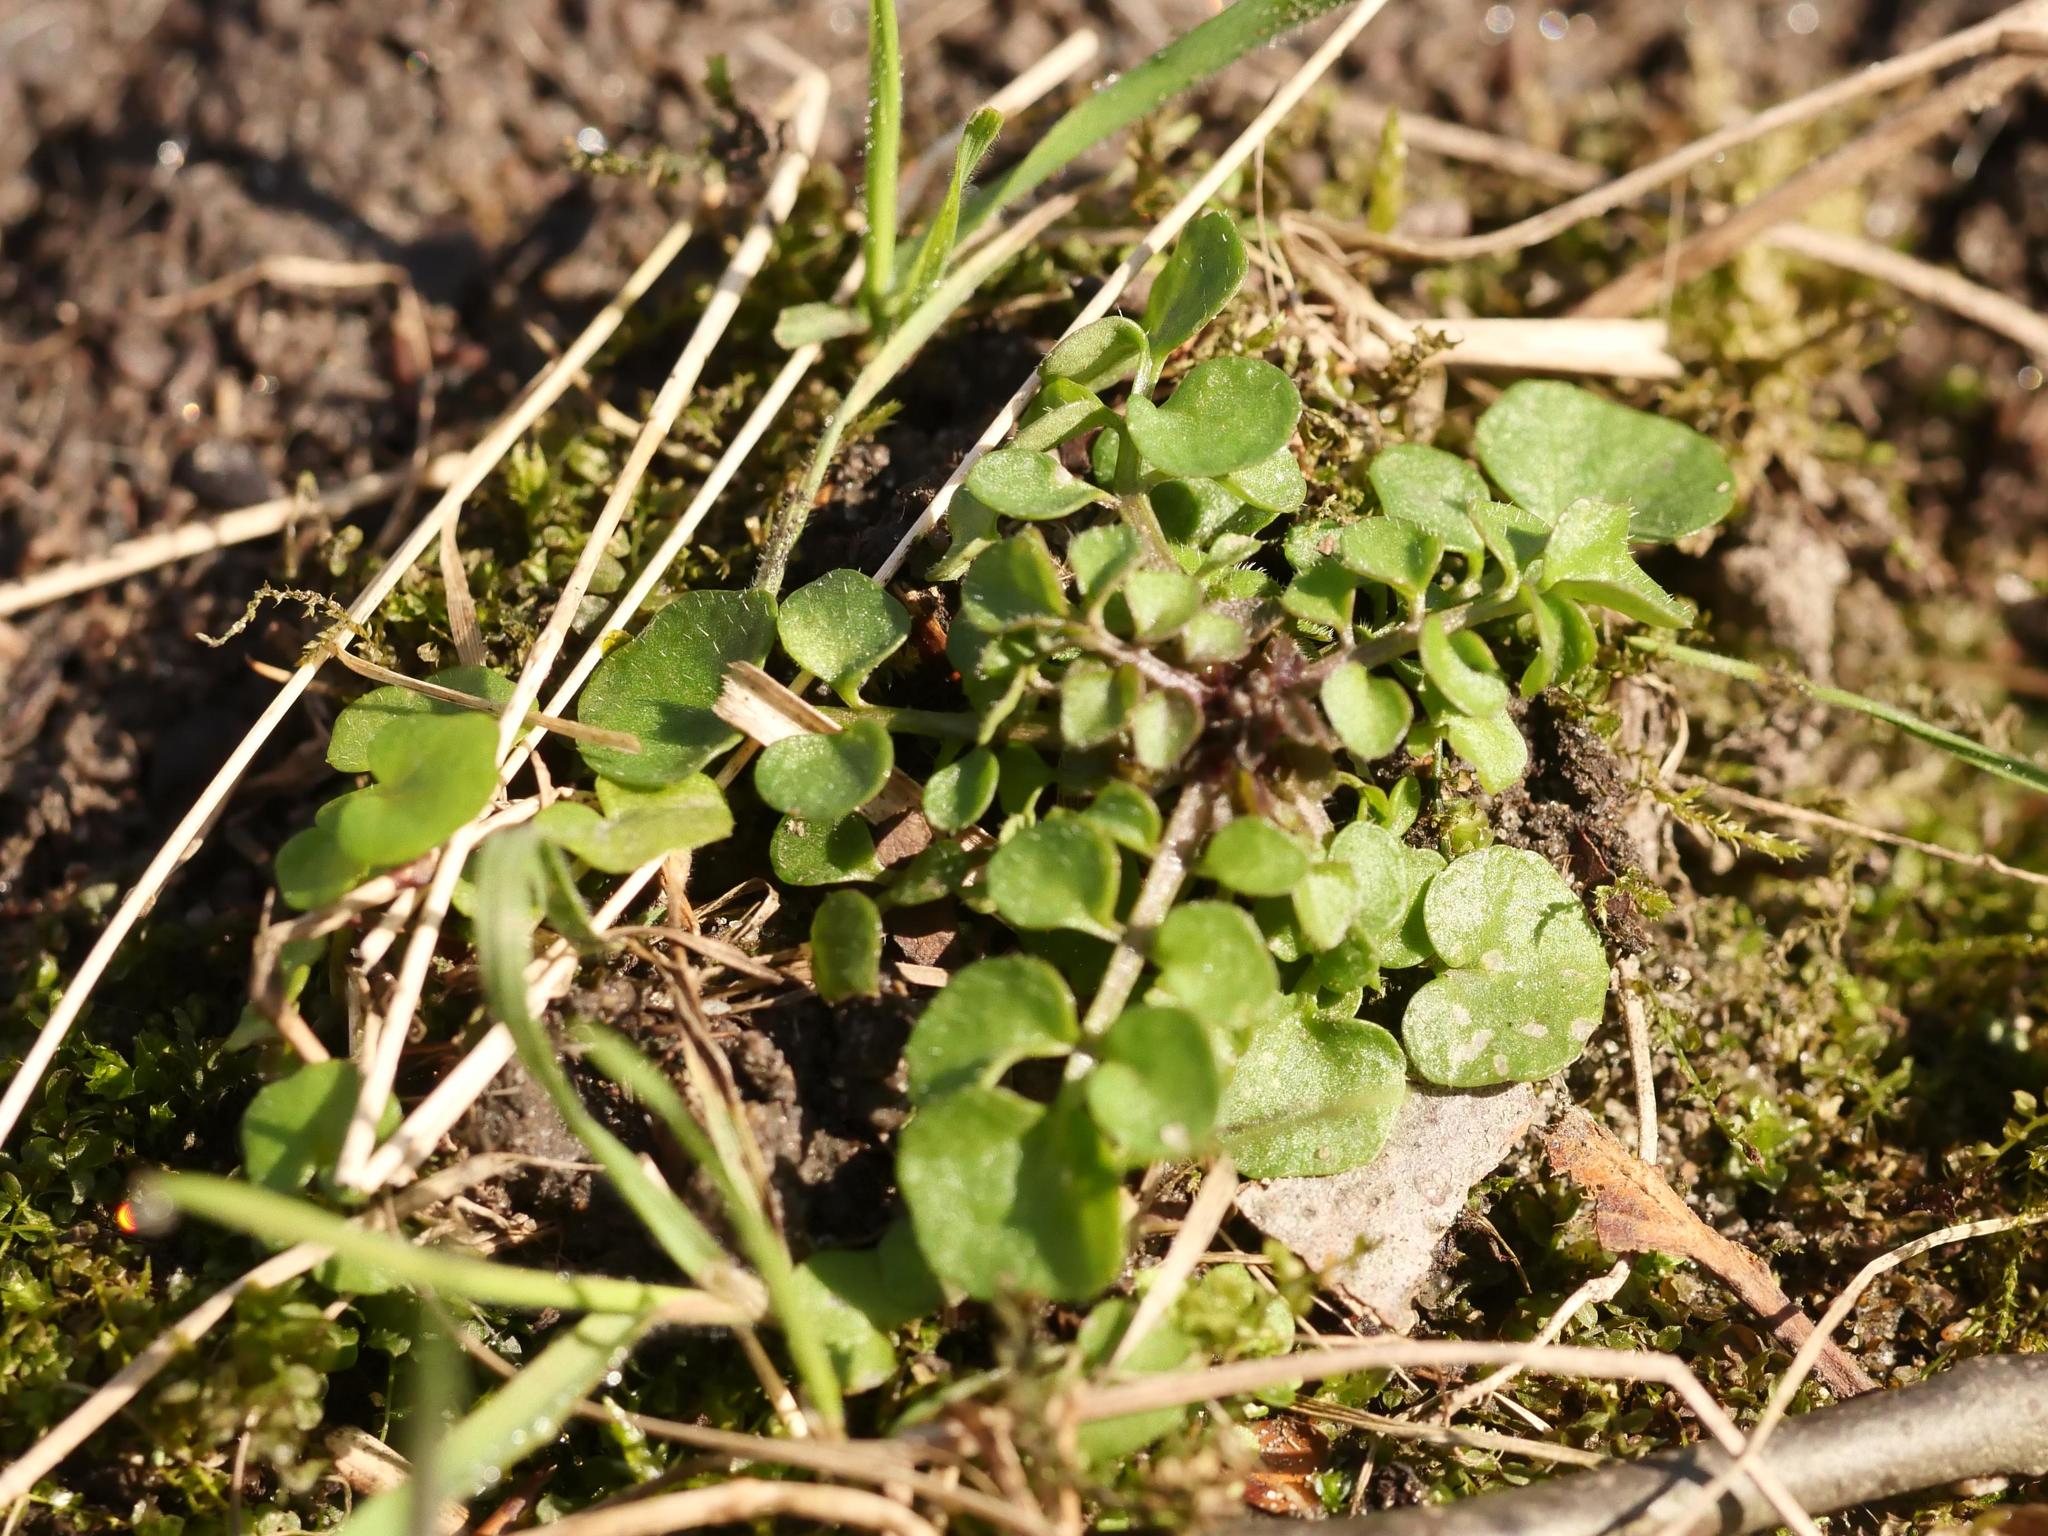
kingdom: Plantae
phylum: Tracheophyta
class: Magnoliopsida
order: Brassicales
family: Brassicaceae
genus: Cardamine
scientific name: Cardamine hirsuta
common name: Hairy bittercress
